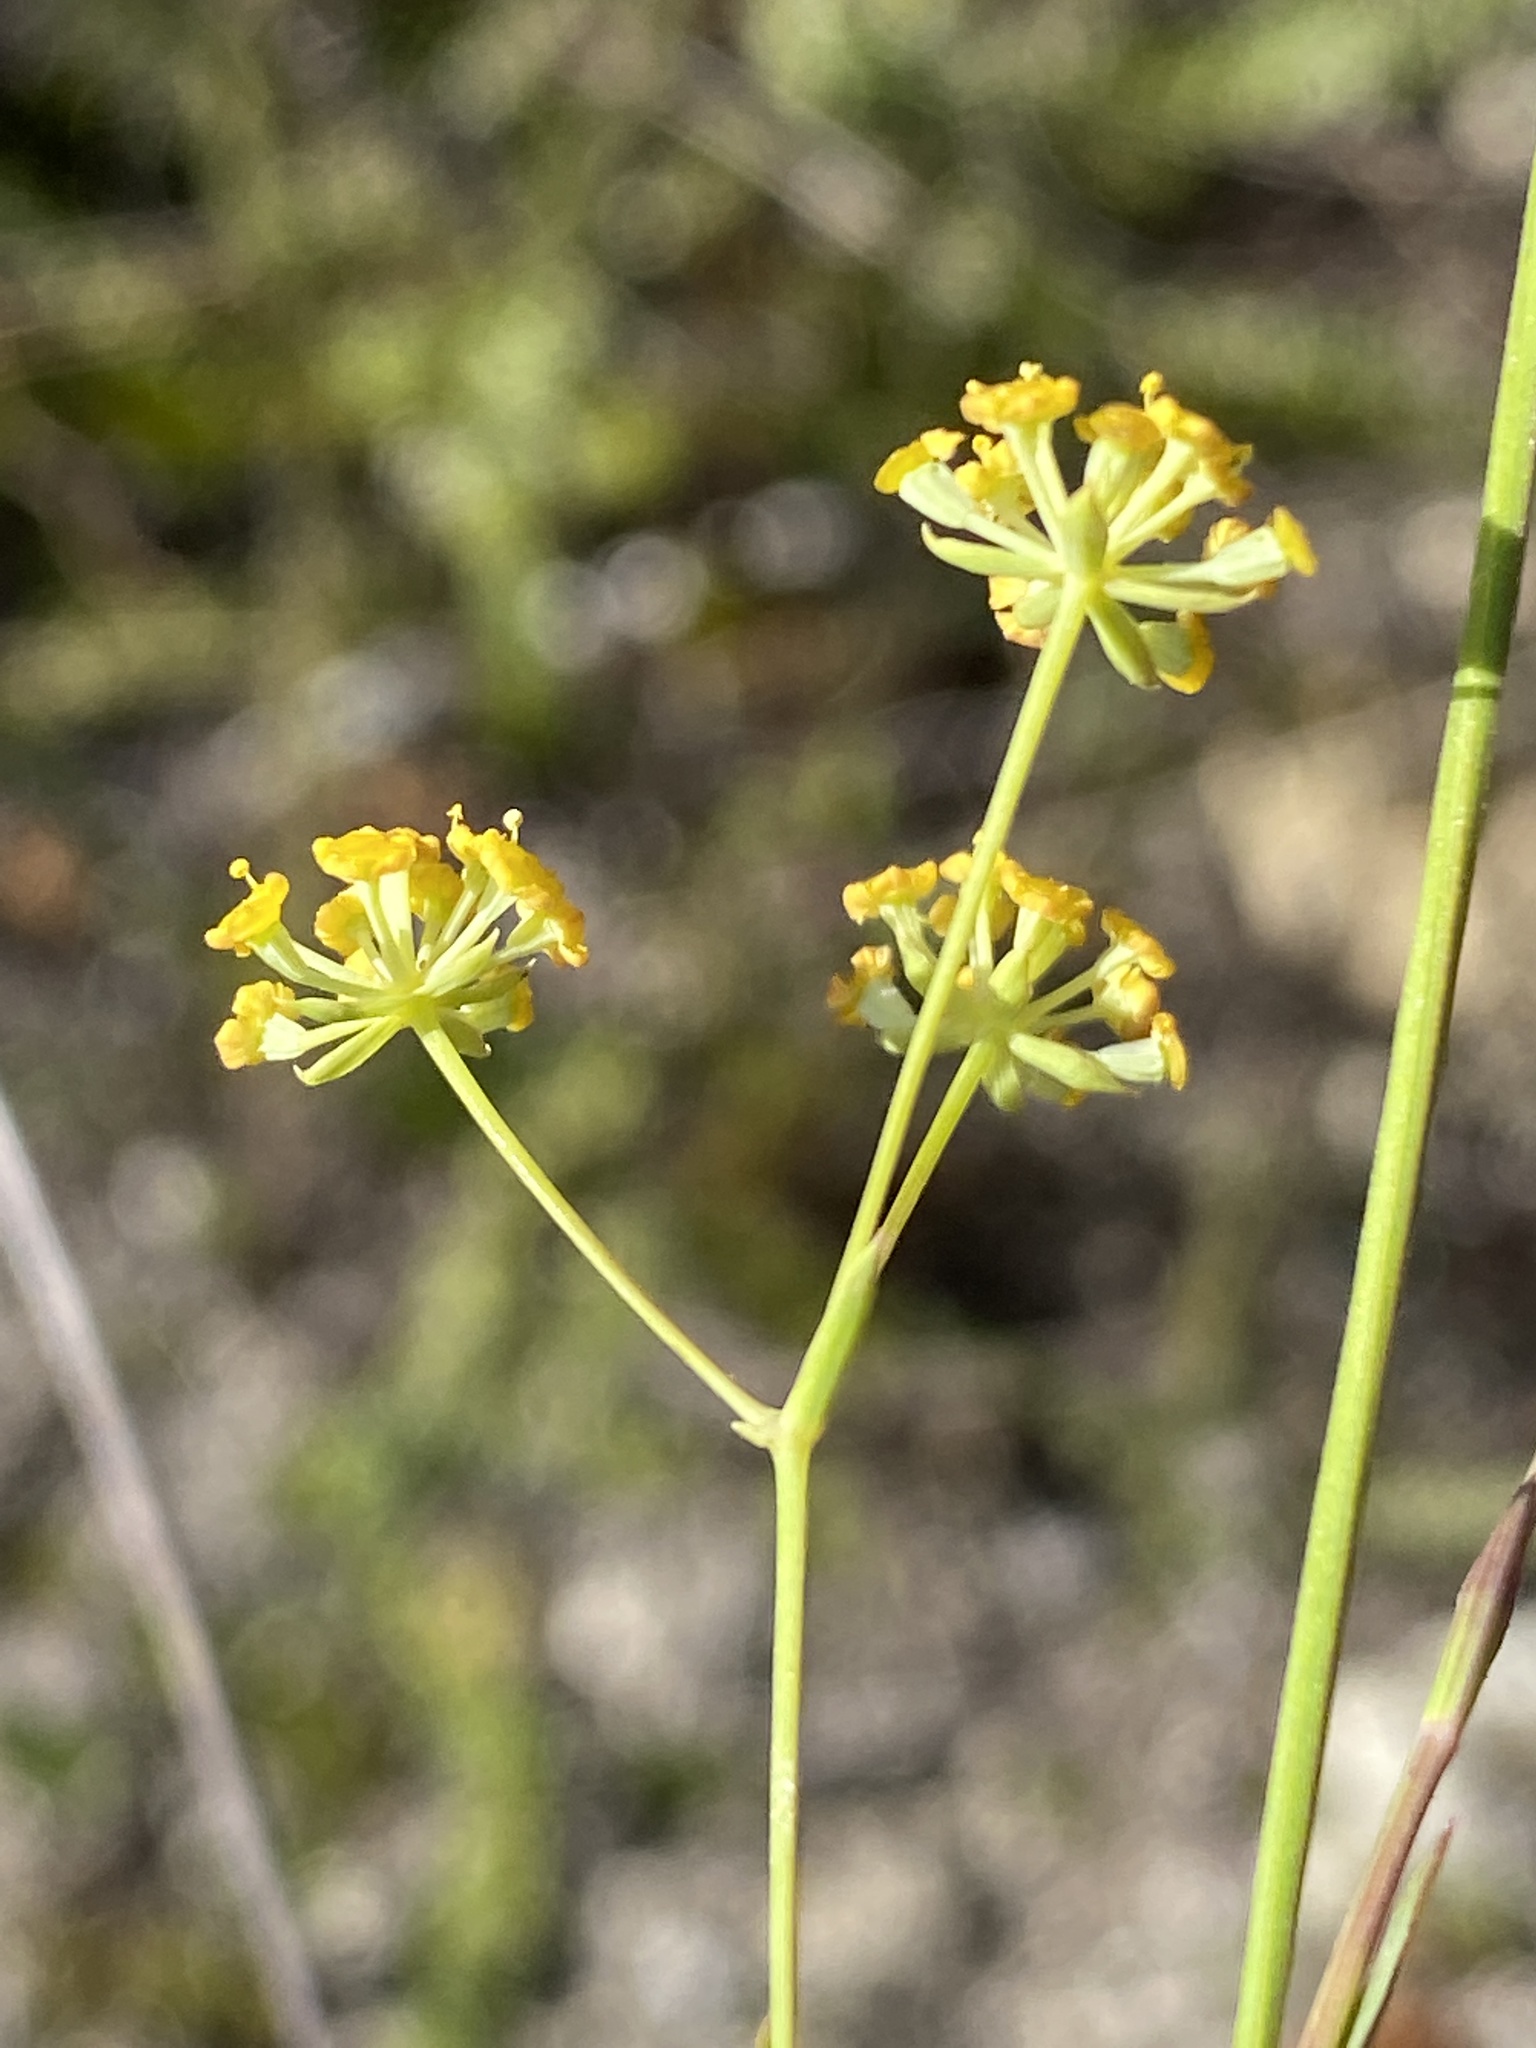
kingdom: Plantae
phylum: Tracheophyta
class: Magnoliopsida
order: Apiales
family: Apiaceae
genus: Bupleurum
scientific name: Bupleurum mundii
